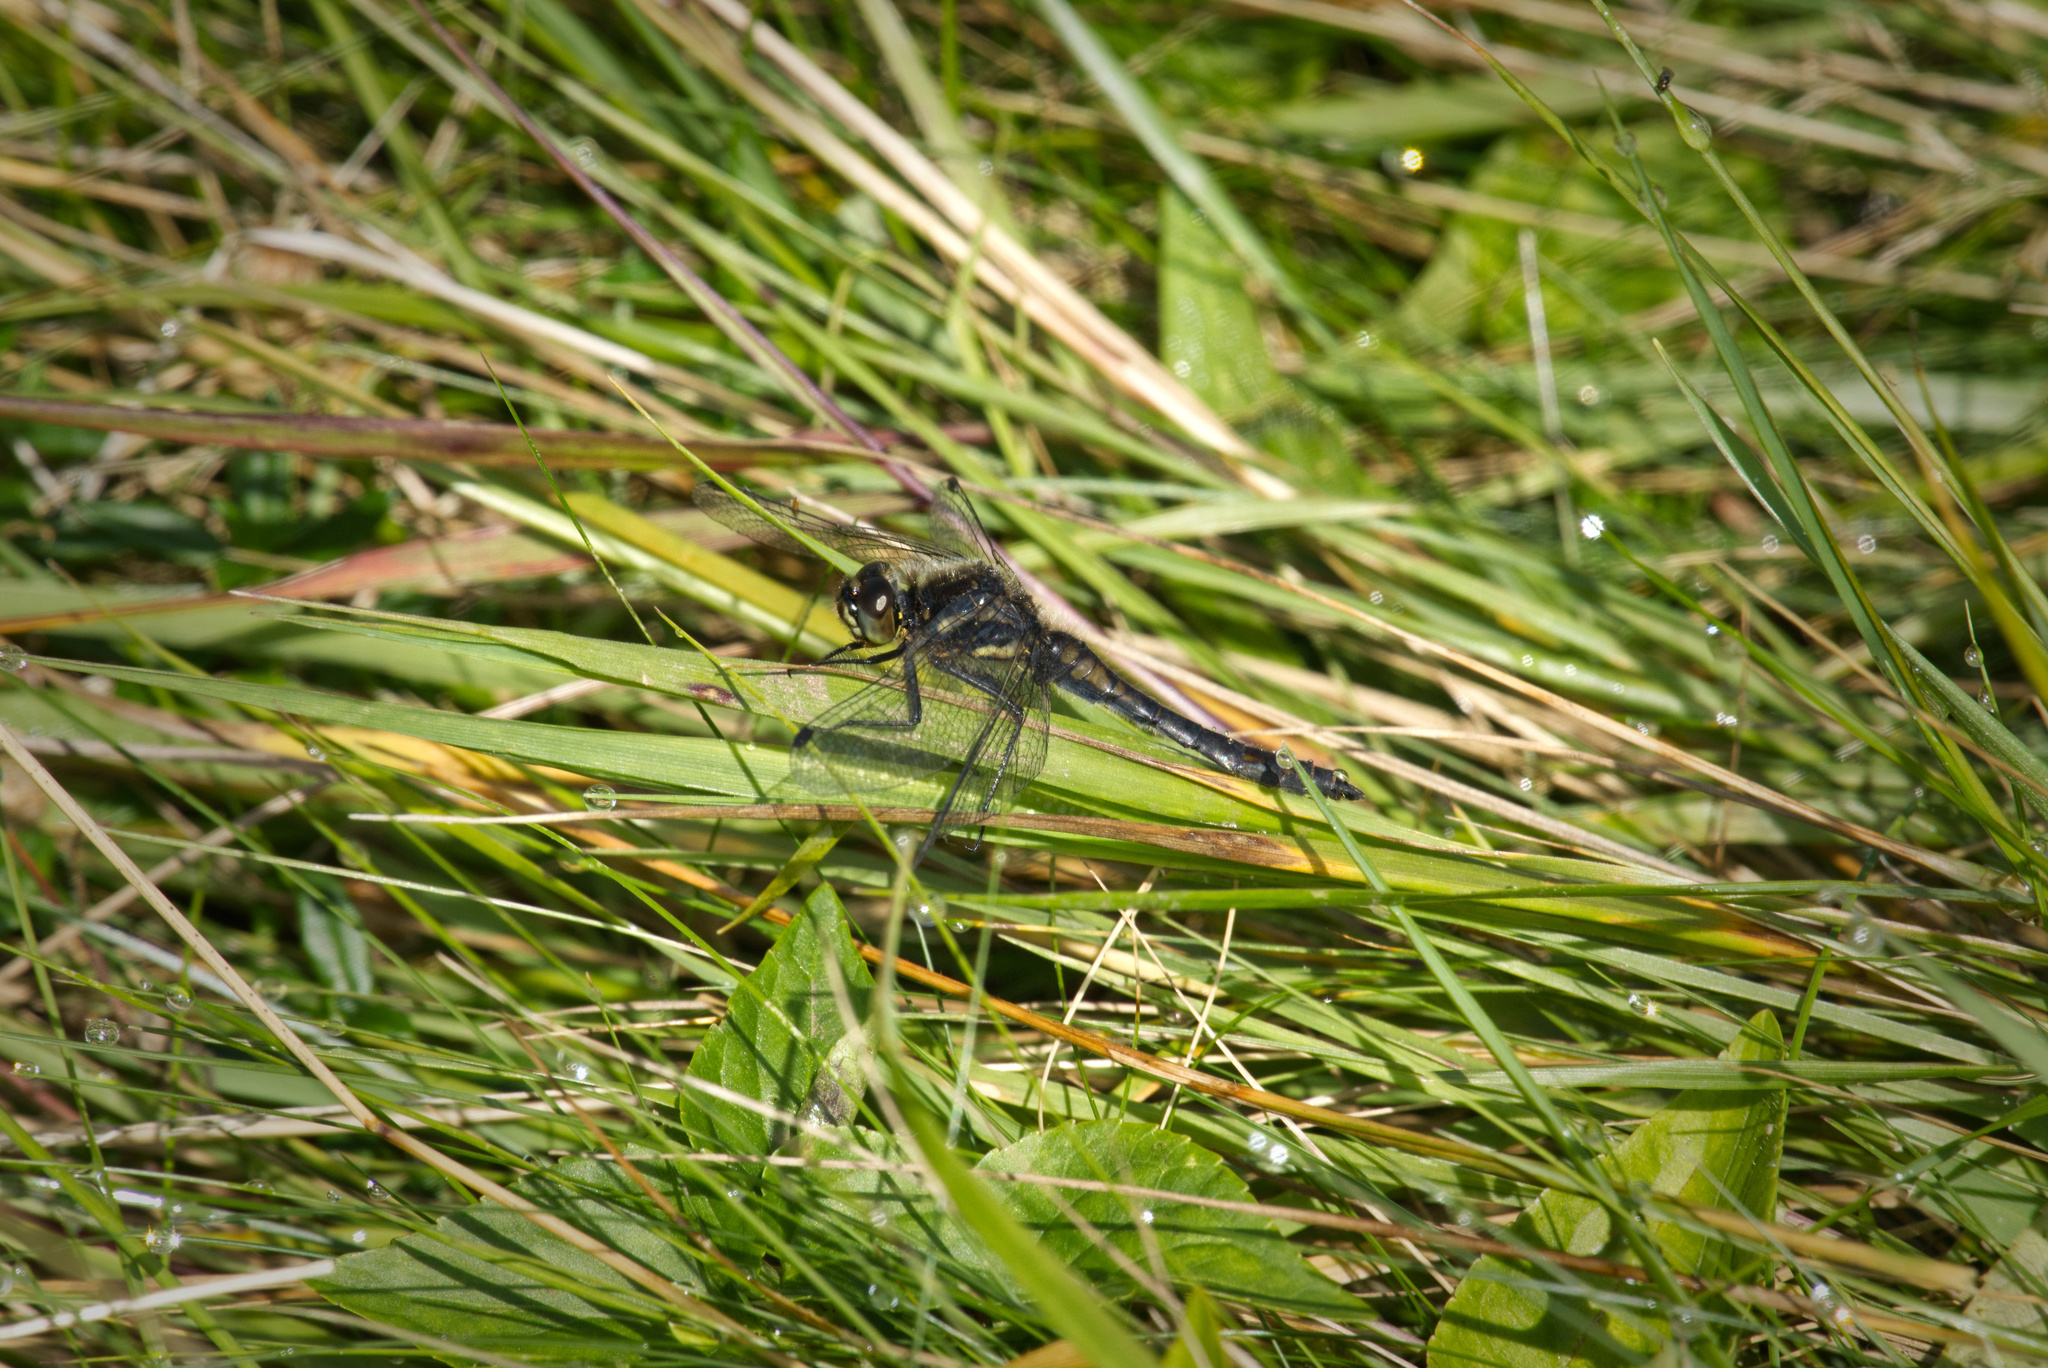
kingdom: Animalia
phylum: Arthropoda
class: Insecta
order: Odonata
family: Libellulidae
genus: Sympetrum
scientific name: Sympetrum danae
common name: Black darter
